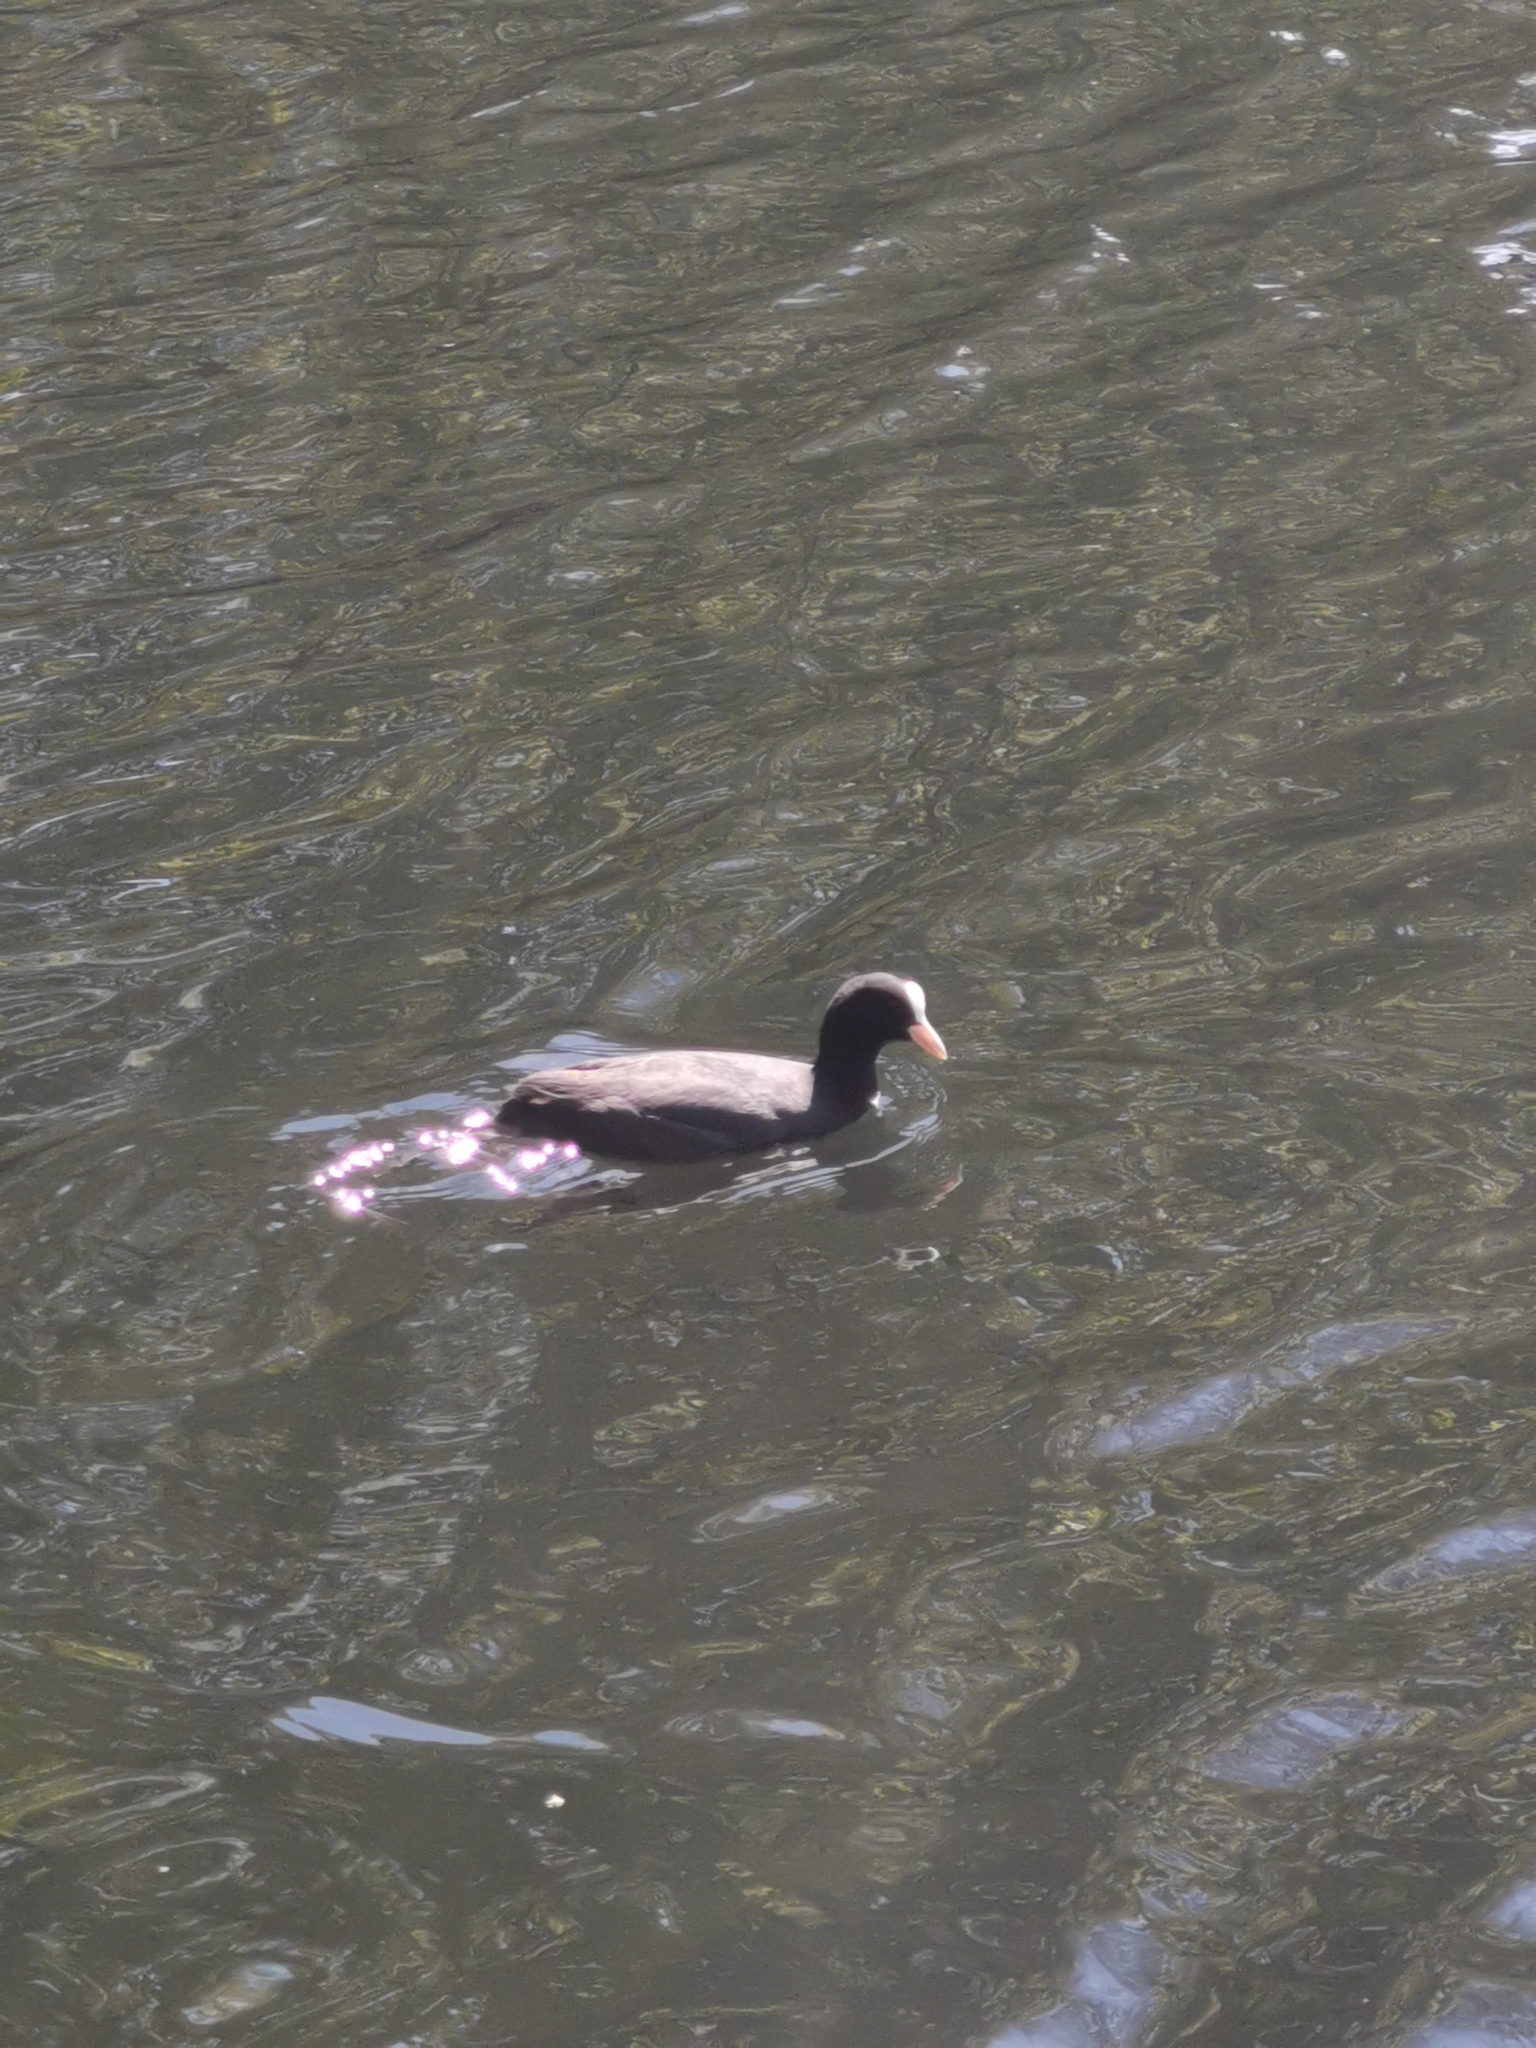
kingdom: Animalia
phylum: Chordata
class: Aves
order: Gruiformes
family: Rallidae
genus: Fulica
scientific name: Fulica atra
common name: Eurasian coot
